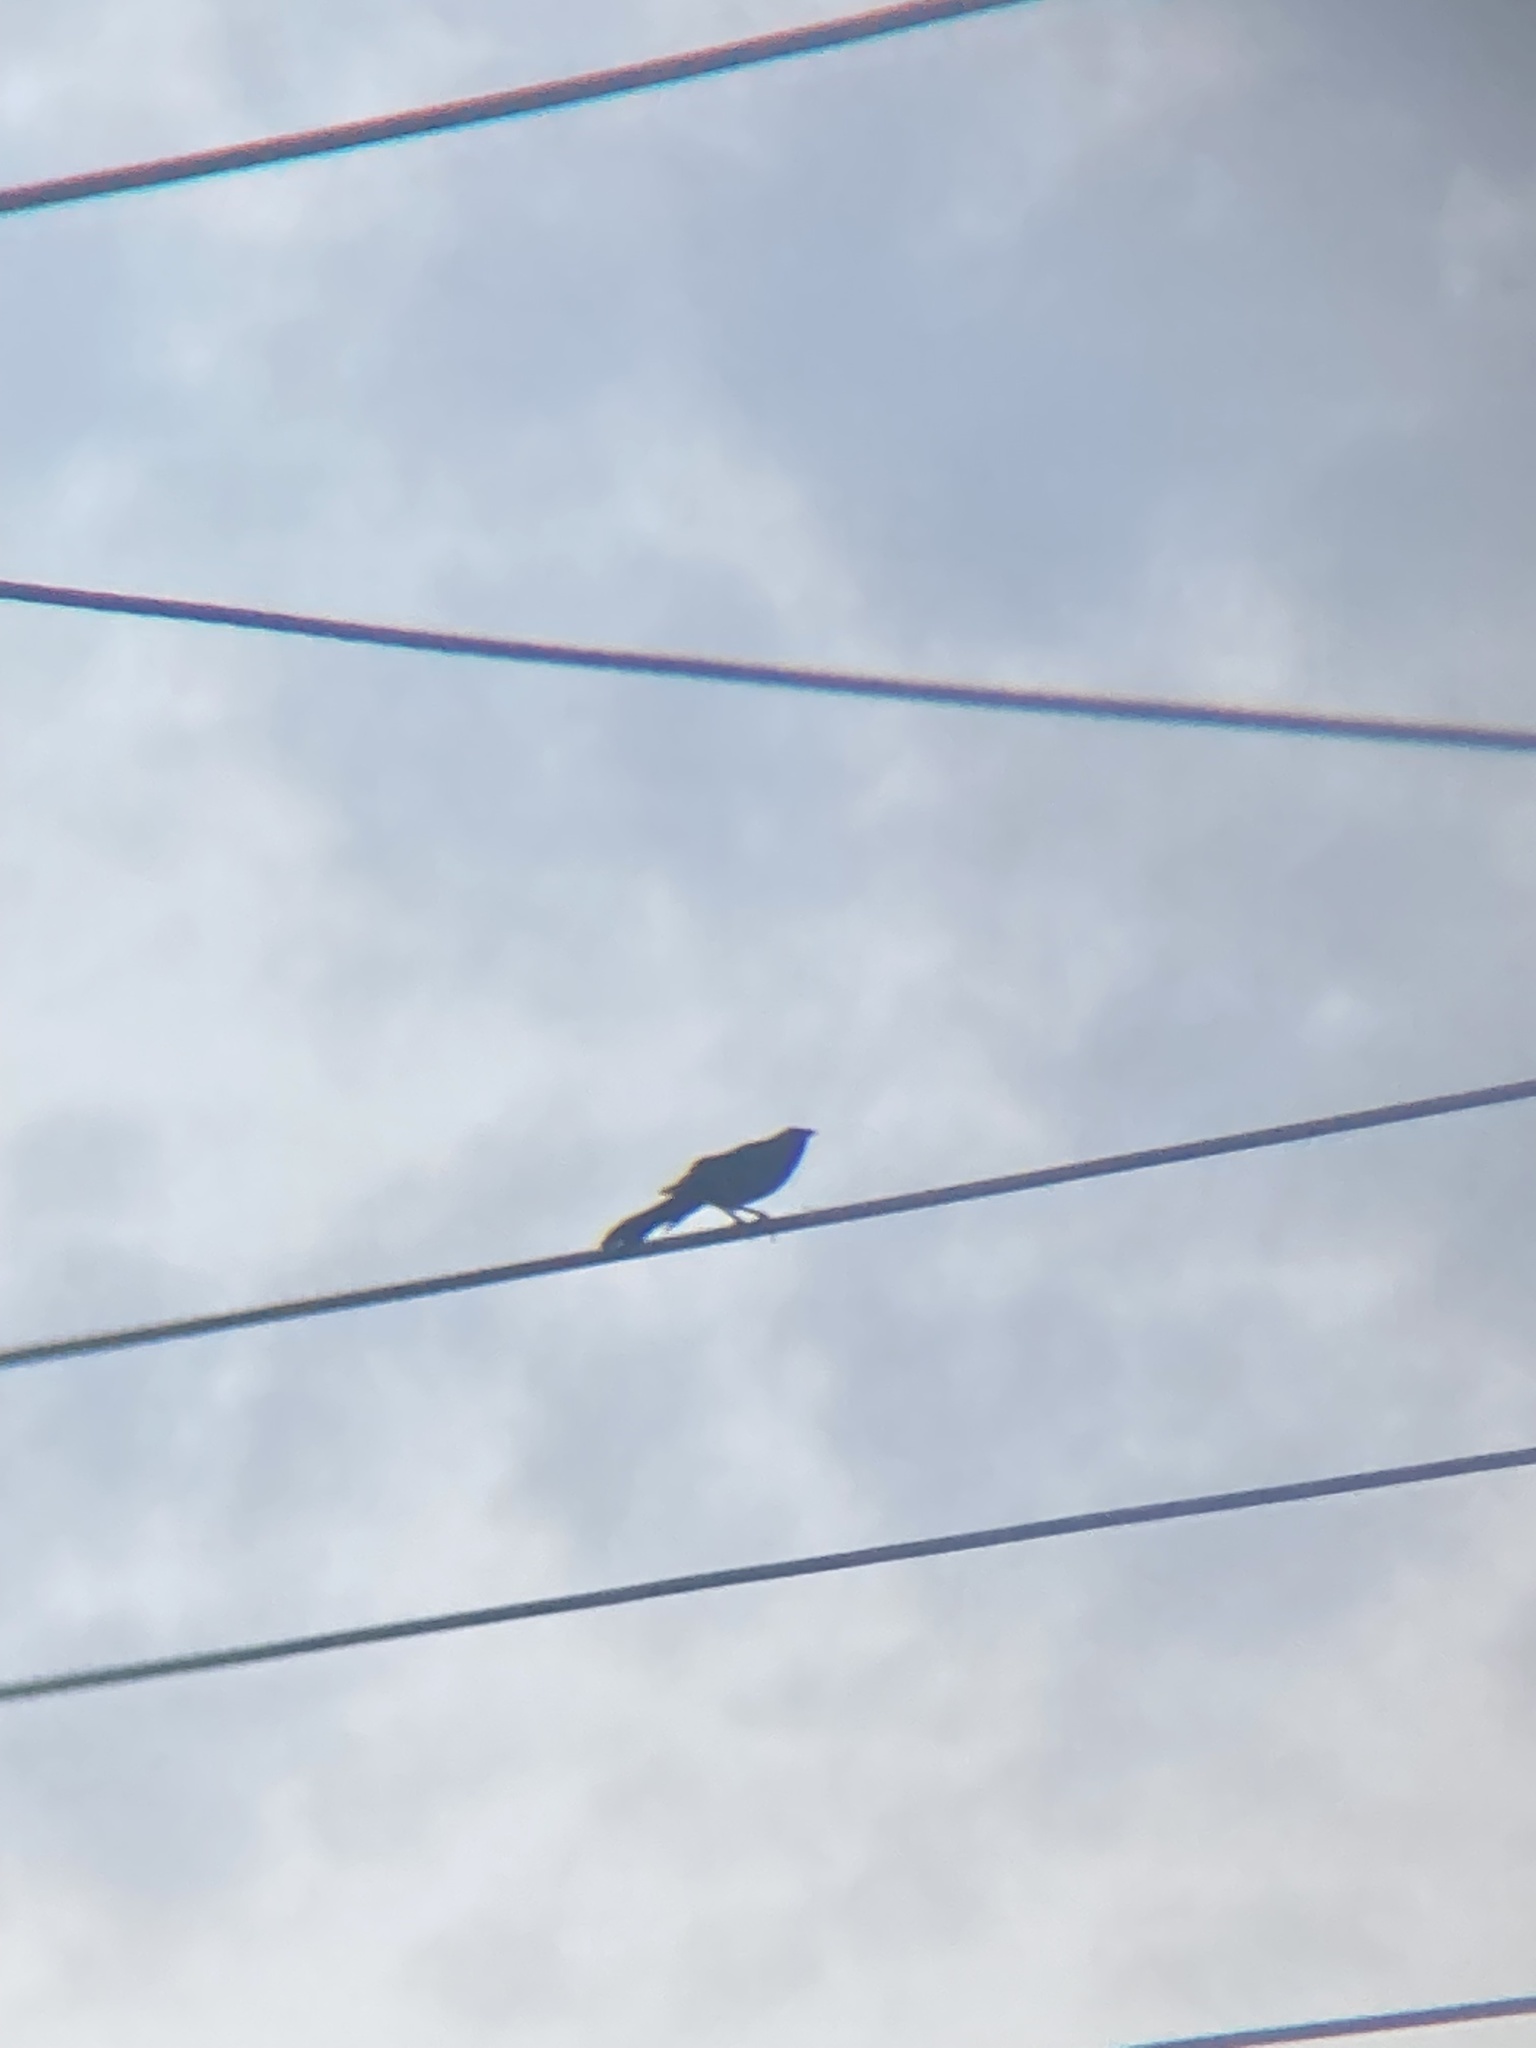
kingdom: Animalia
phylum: Chordata
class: Aves
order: Passeriformes
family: Icteridae
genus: Quiscalus
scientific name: Quiscalus quiscula
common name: Common grackle
